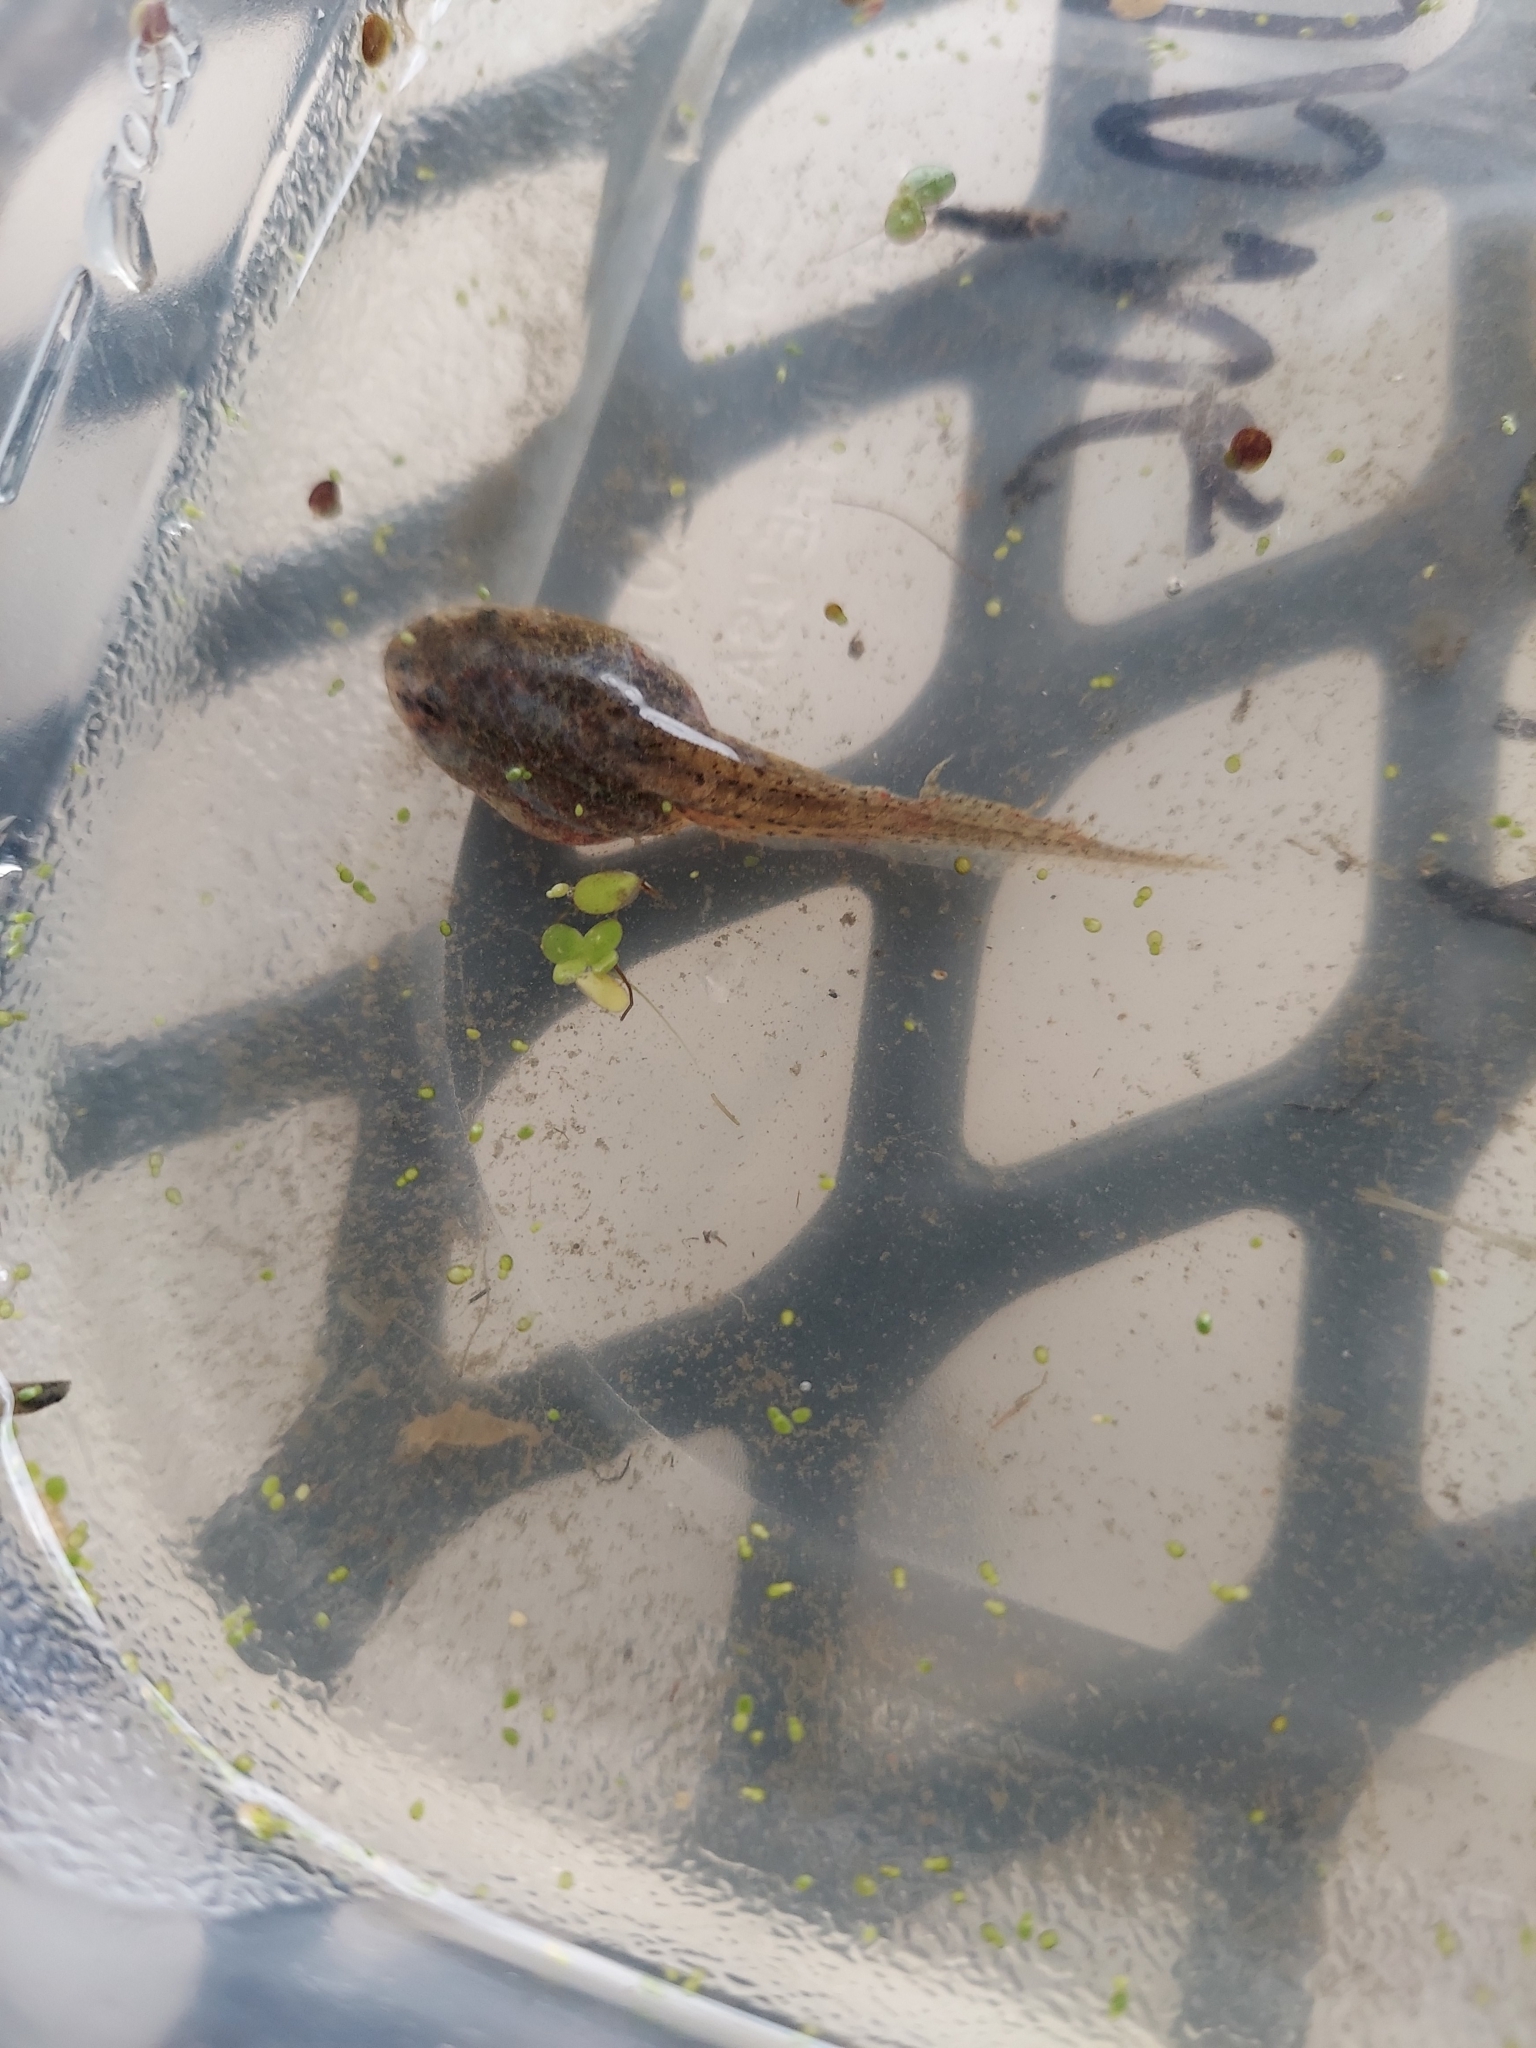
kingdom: Animalia
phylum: Chordata
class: Amphibia
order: Anura
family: Ranidae
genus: Lithobates
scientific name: Lithobates clamitans
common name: Green frog
